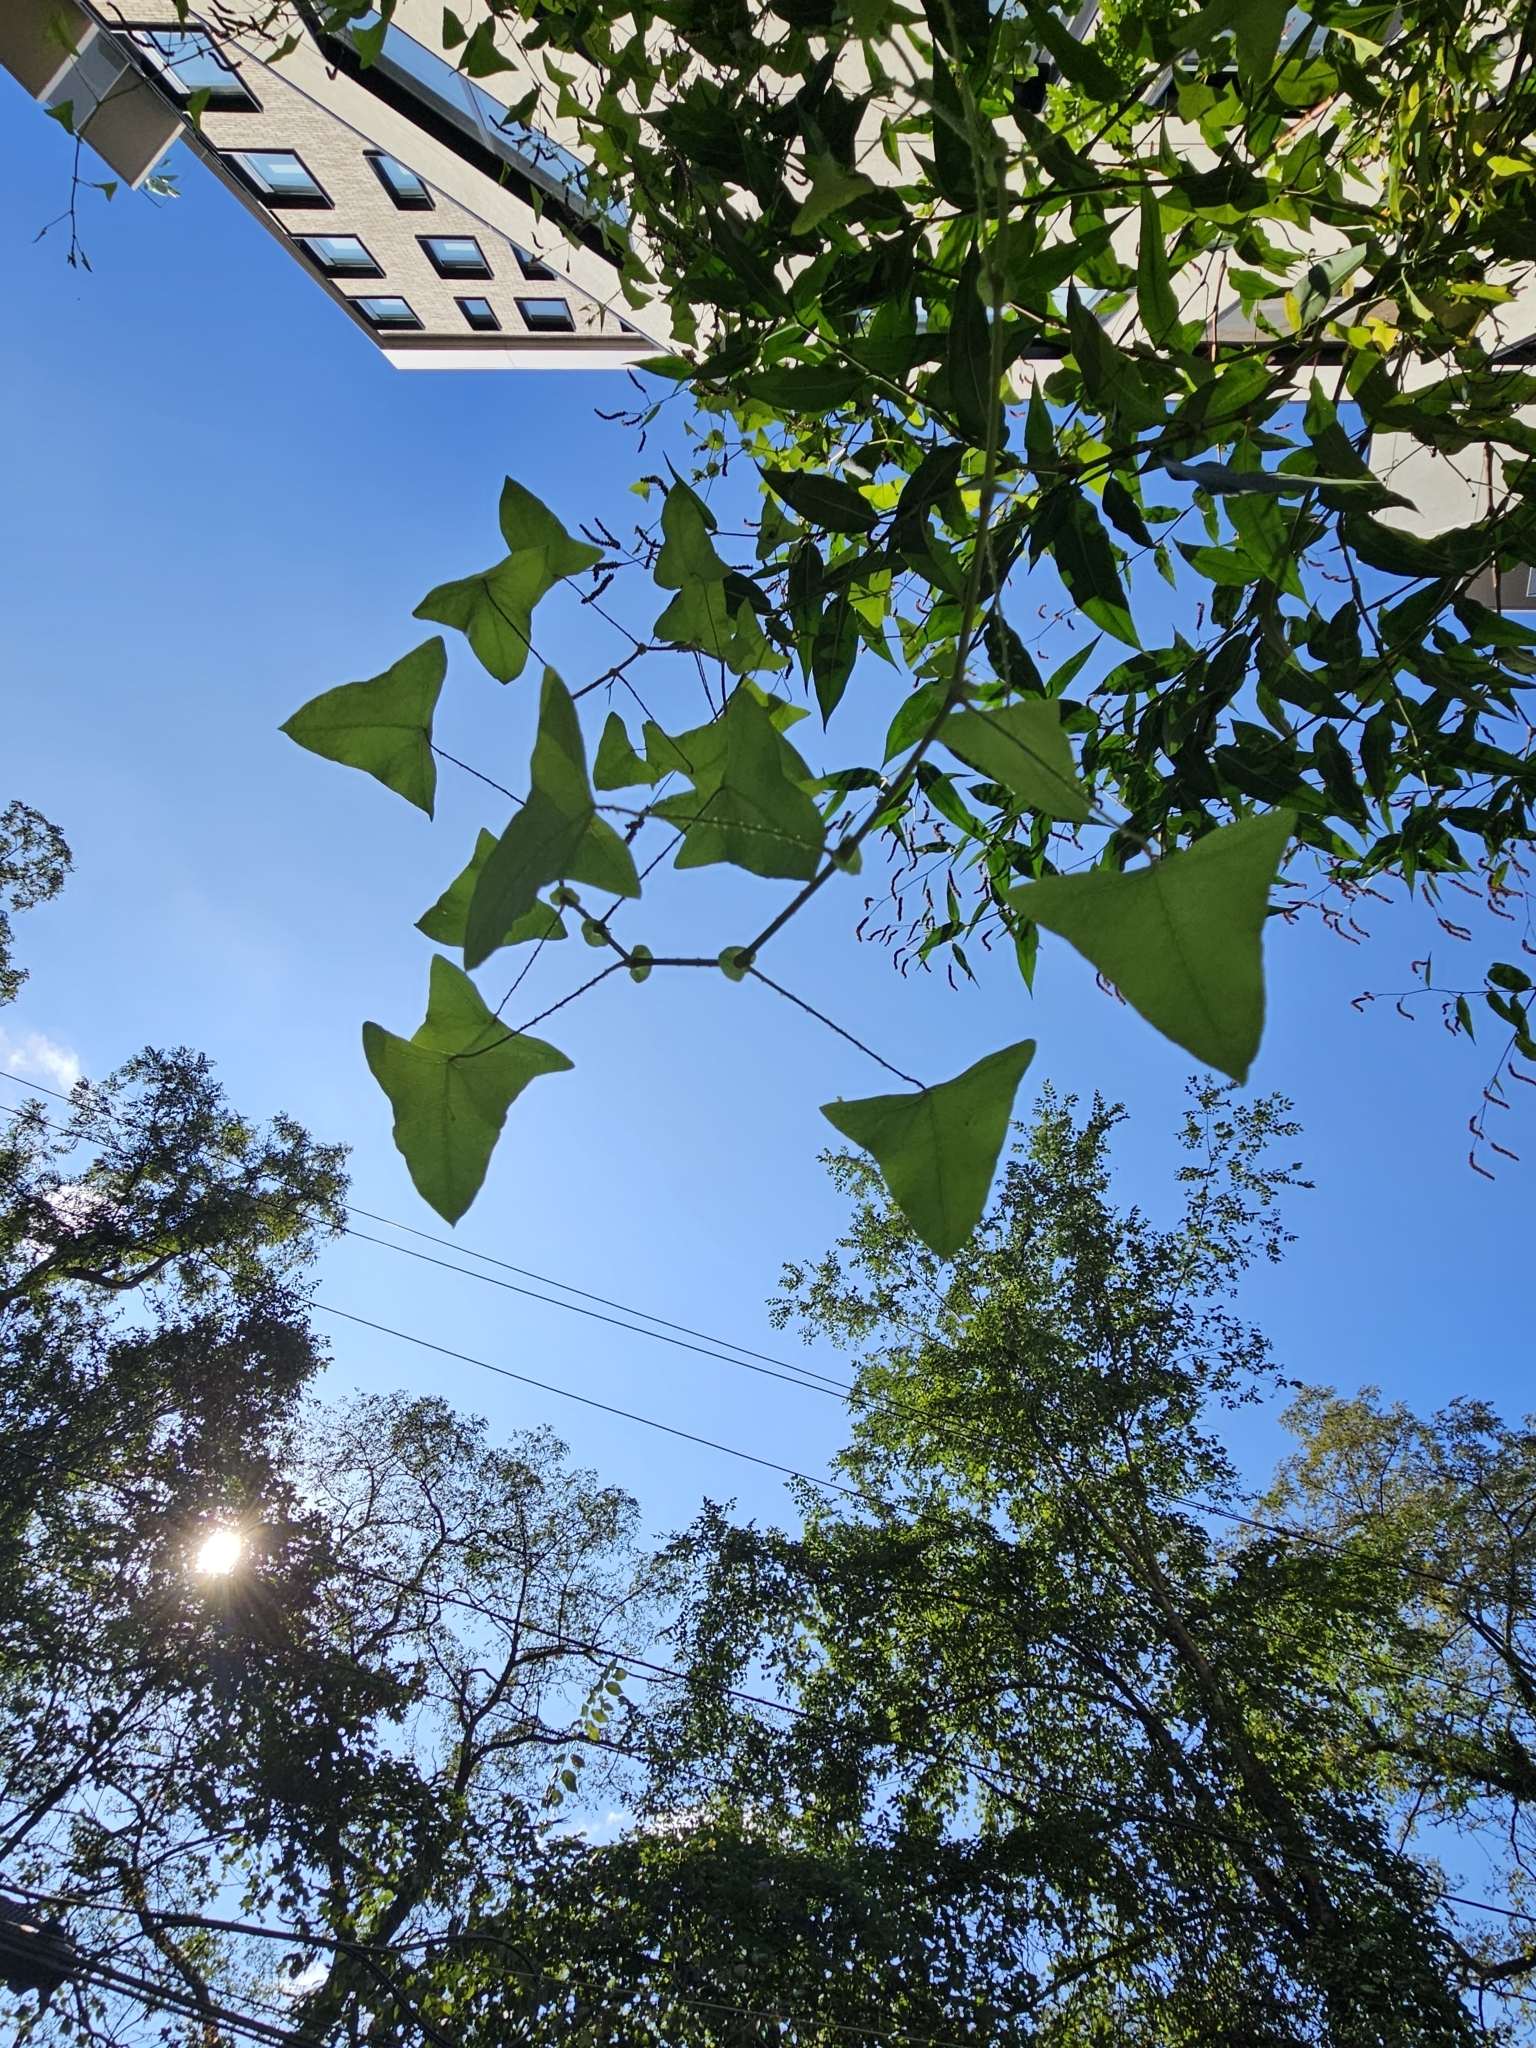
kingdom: Plantae
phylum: Tracheophyta
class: Magnoliopsida
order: Caryophyllales
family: Polygonaceae
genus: Persicaria
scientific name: Persicaria perfoliata
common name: Asiatic tearthumb
